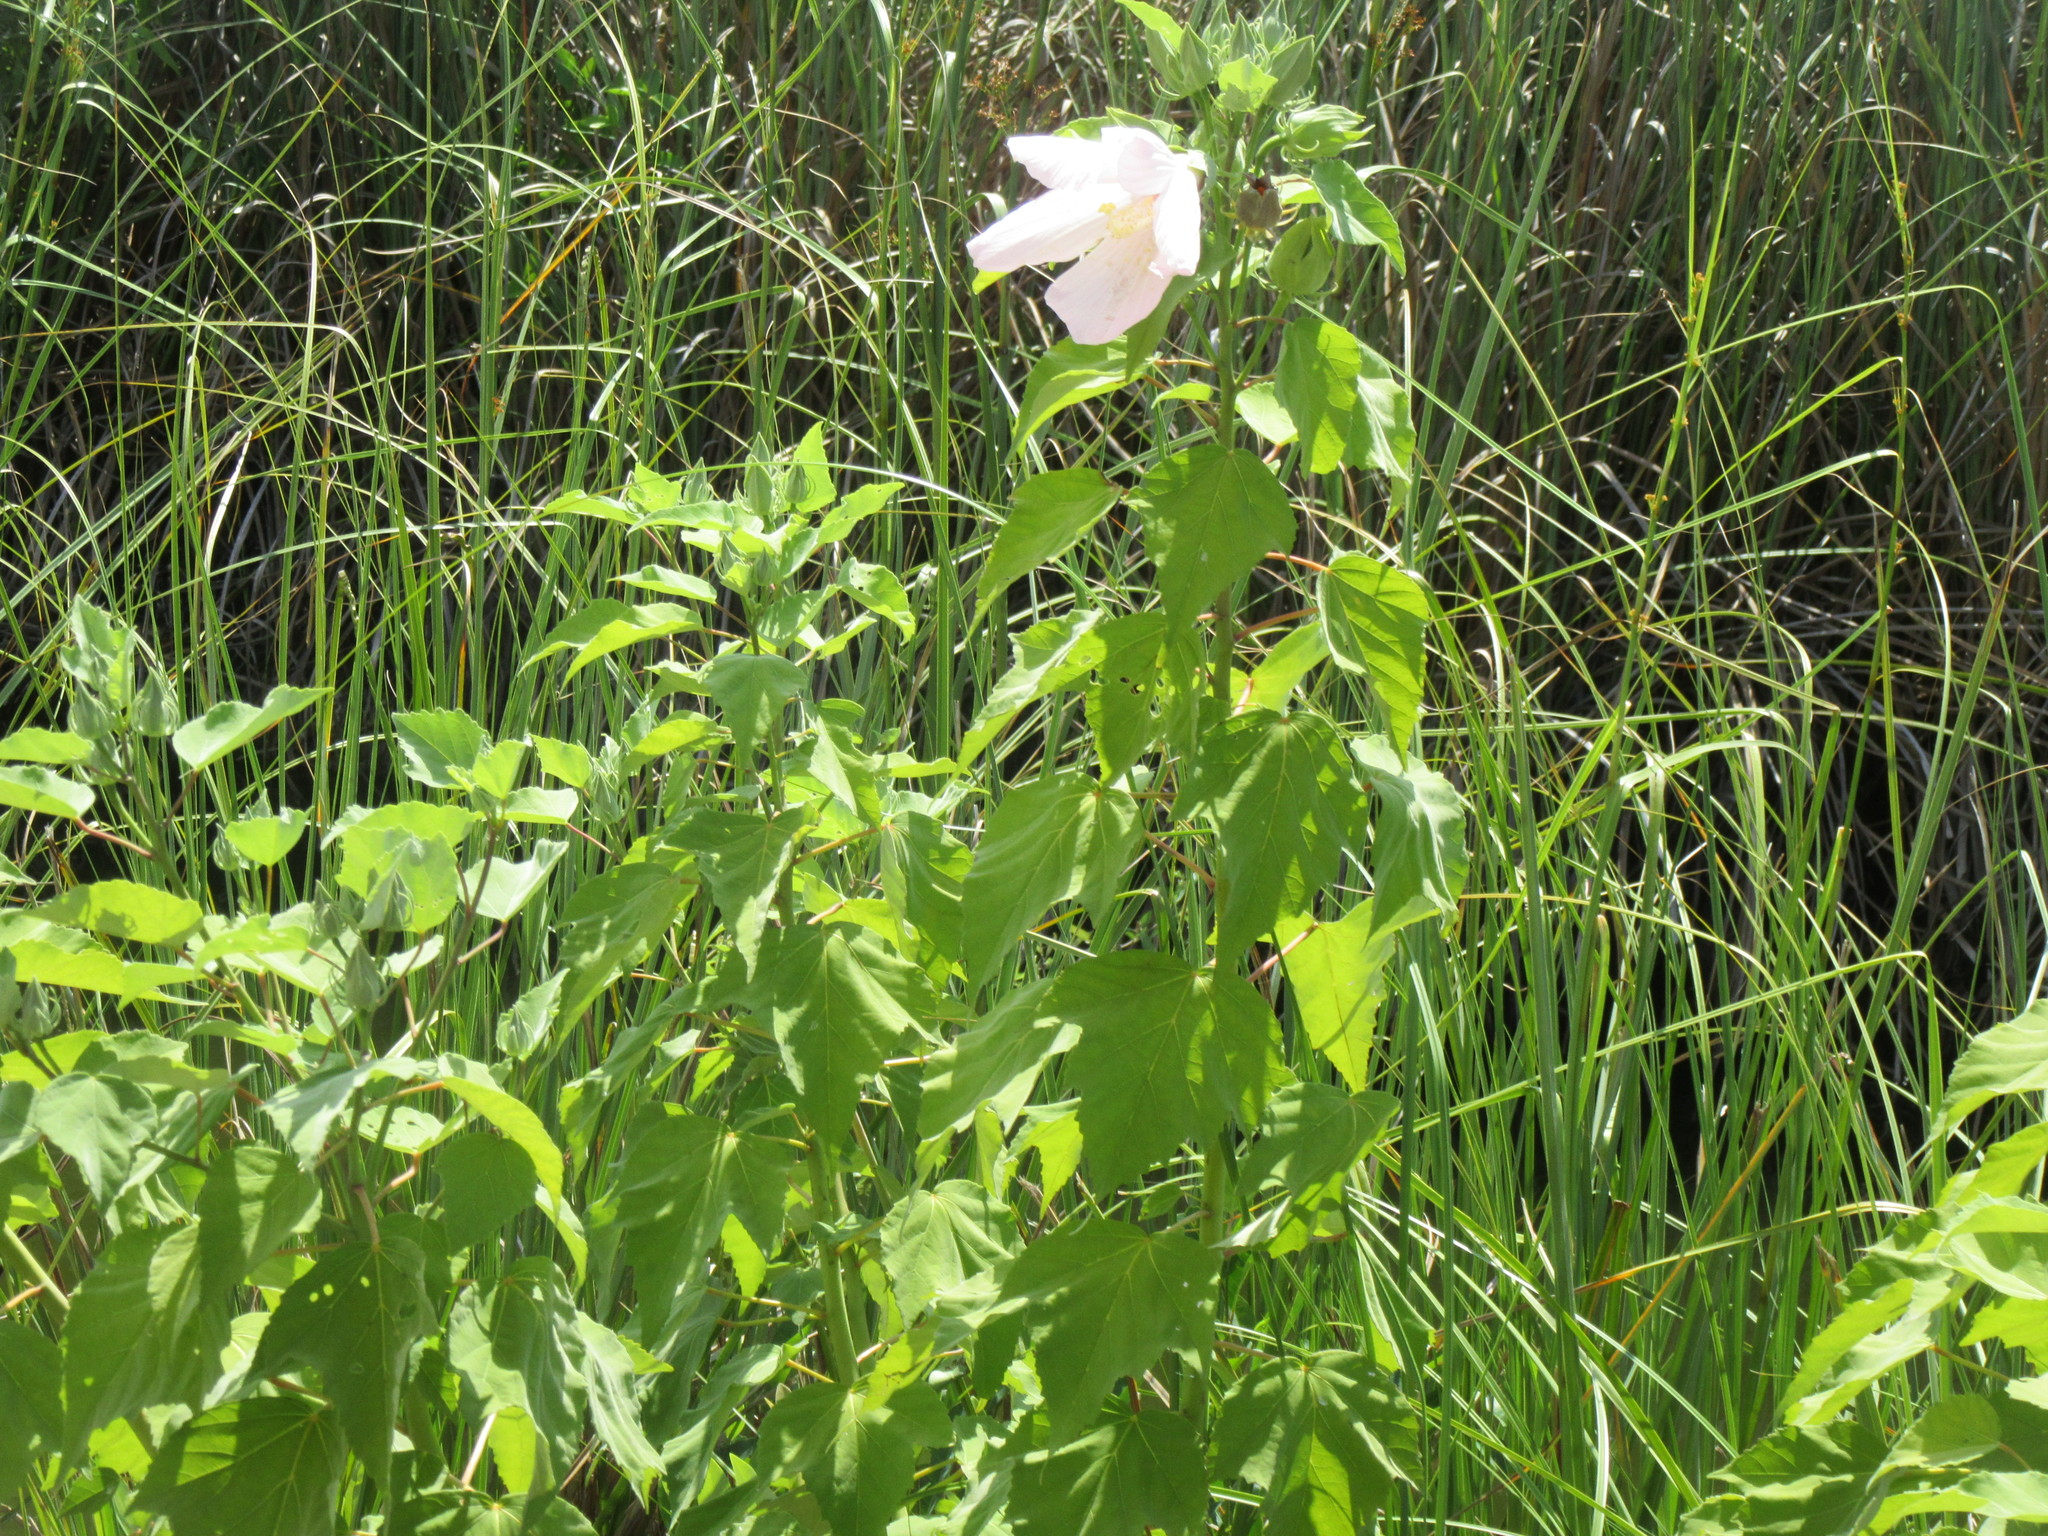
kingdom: Plantae
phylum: Tracheophyta
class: Magnoliopsida
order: Malvales
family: Malvaceae
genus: Hibiscus
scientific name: Hibiscus grandiflorus
